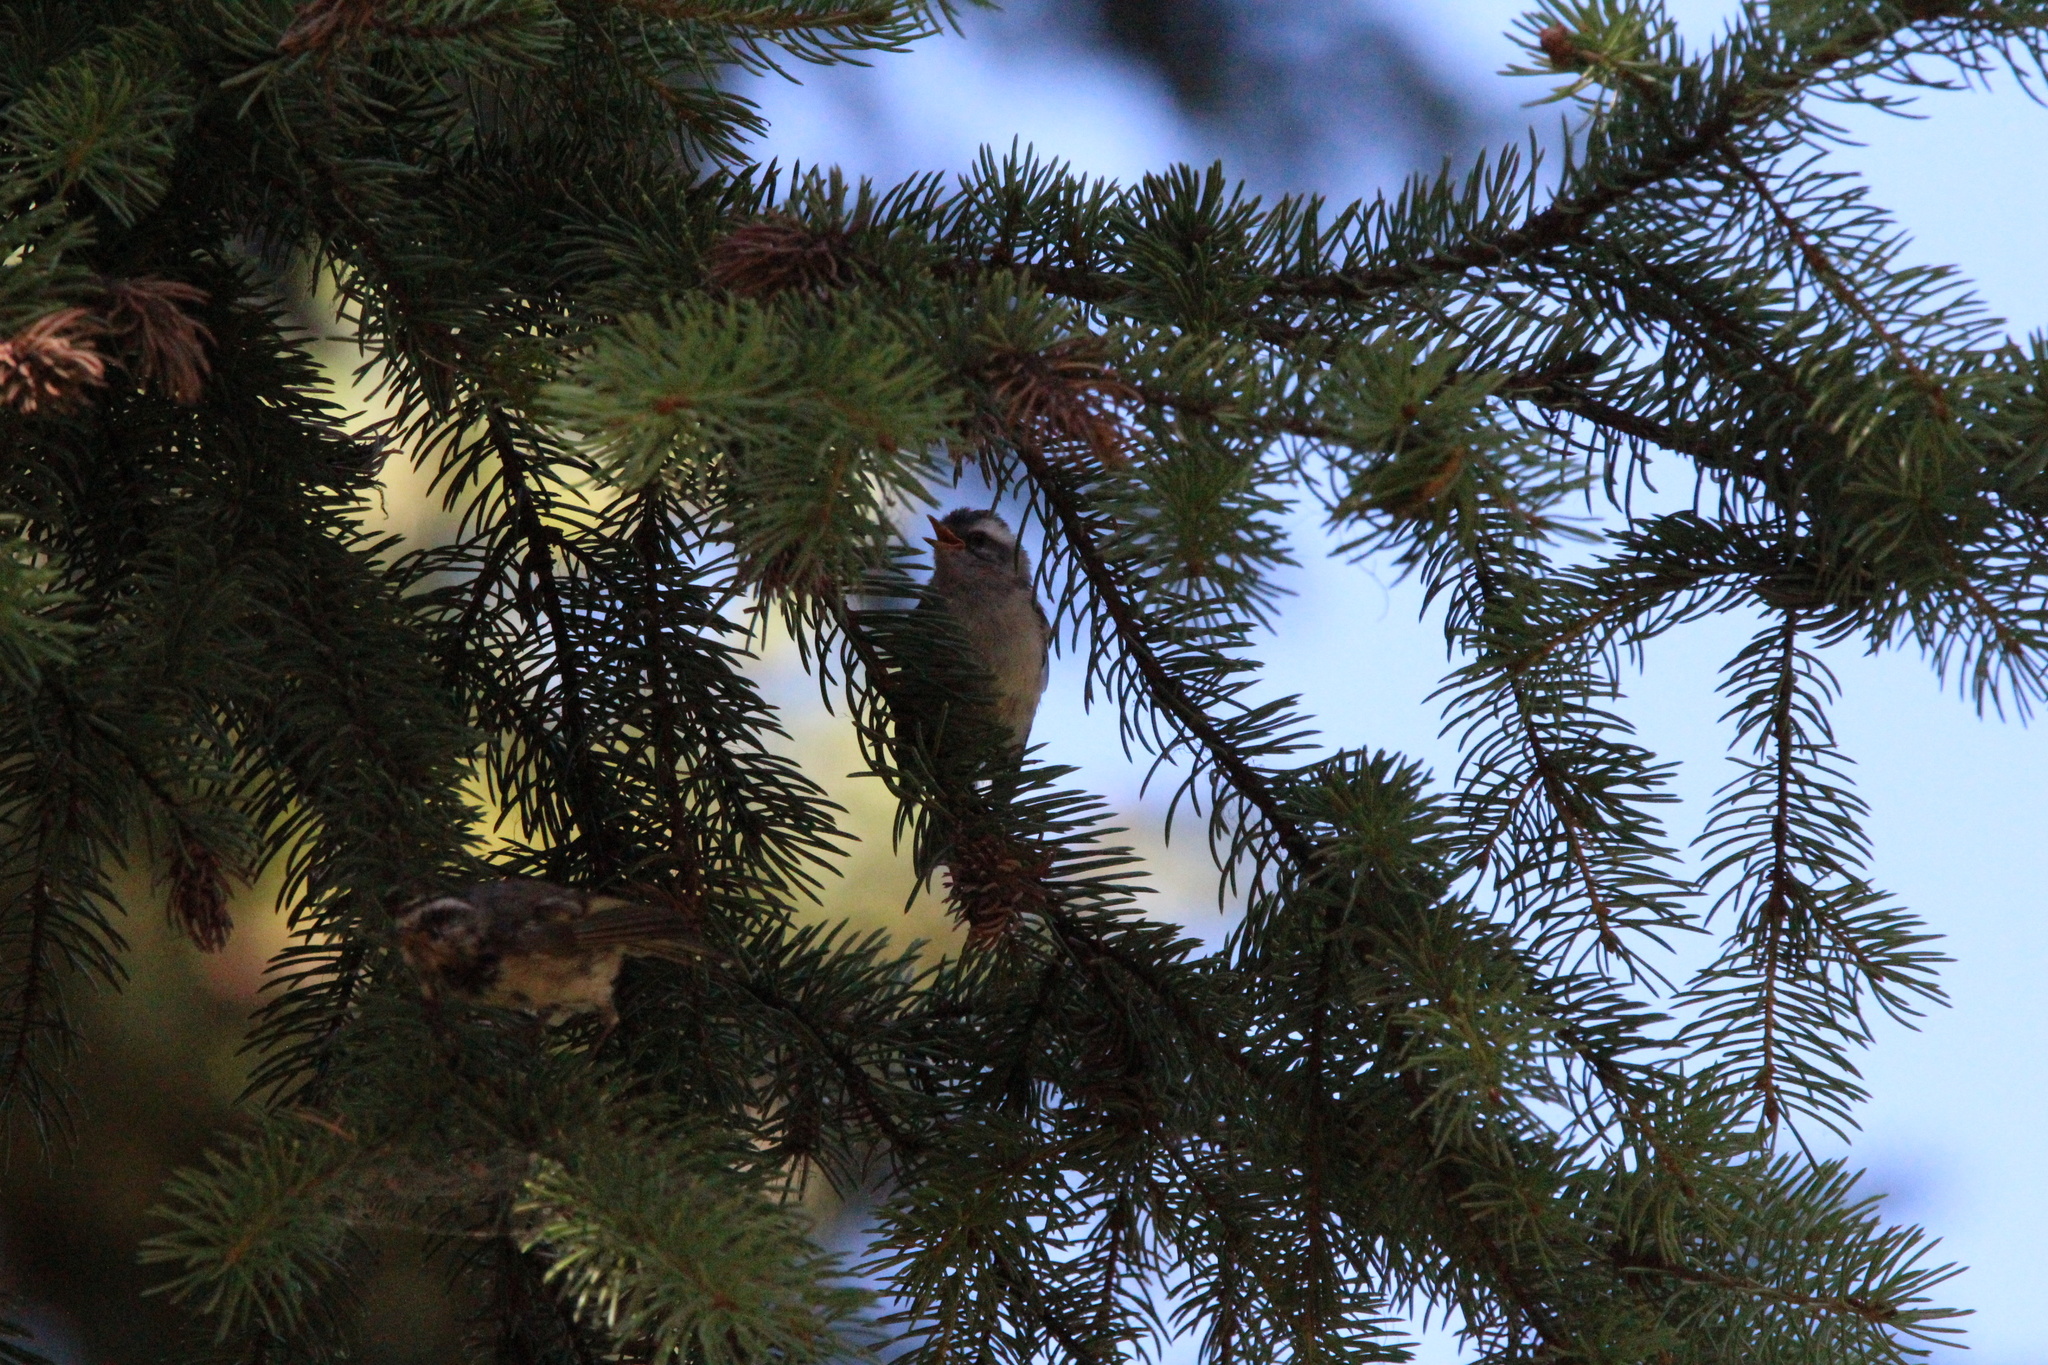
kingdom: Animalia
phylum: Chordata
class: Aves
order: Passeriformes
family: Regulidae
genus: Regulus
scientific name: Regulus satrapa
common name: Golden-crowned kinglet
